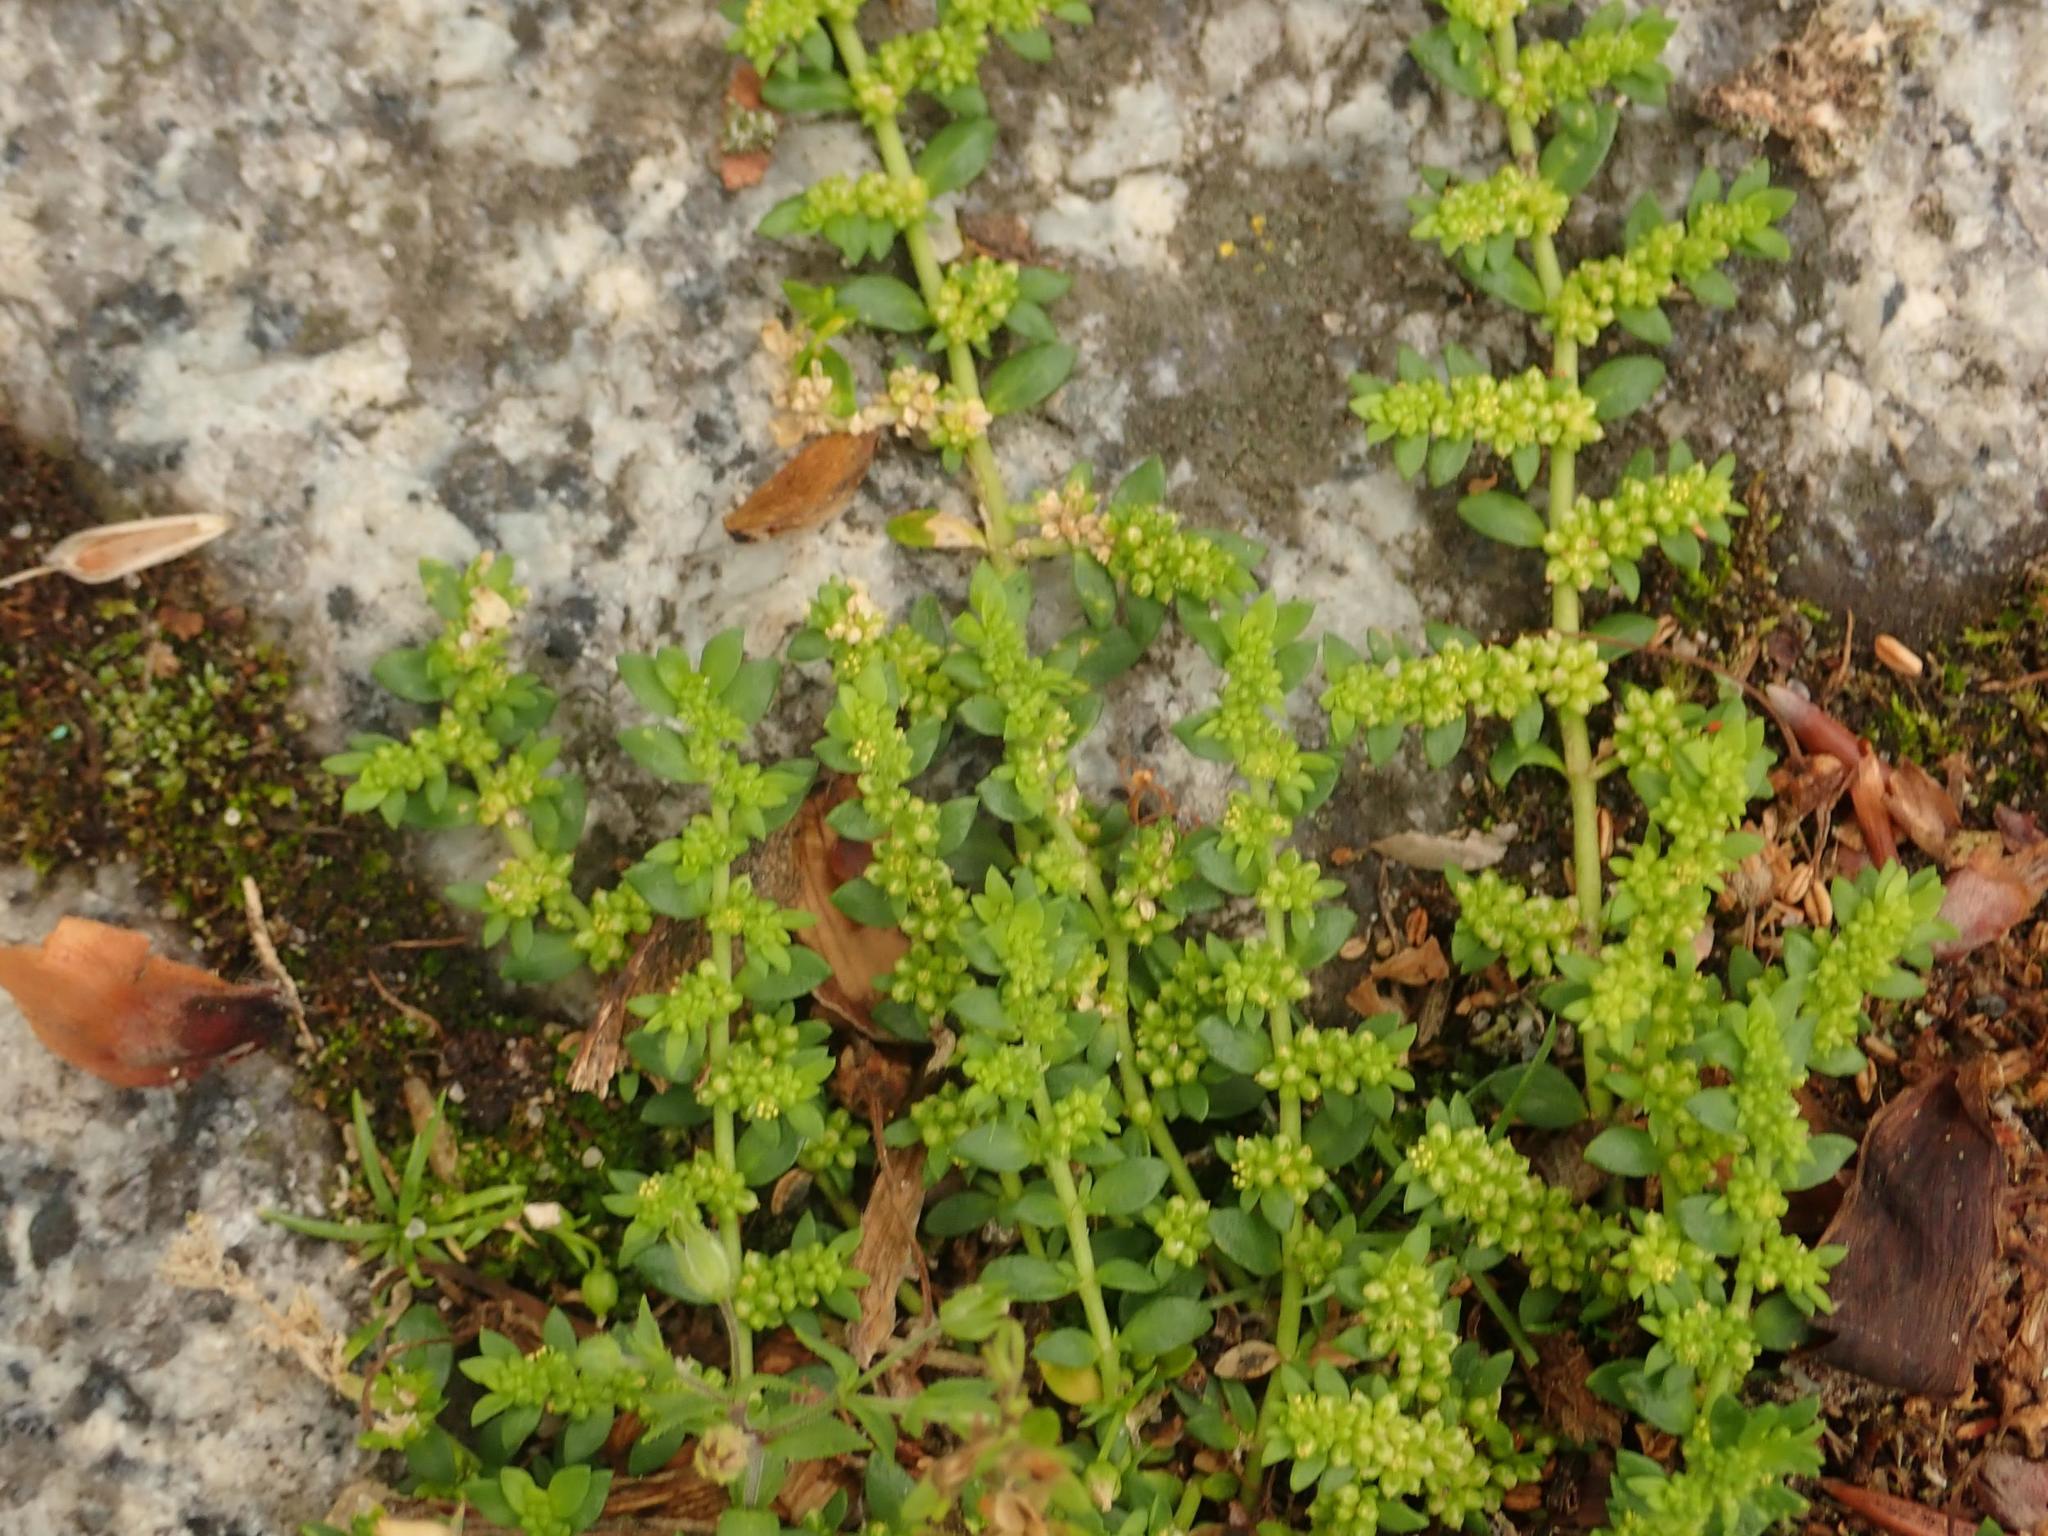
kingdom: Plantae
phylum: Tracheophyta
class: Magnoliopsida
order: Caryophyllales
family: Caryophyllaceae
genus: Herniaria
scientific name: Herniaria glabra
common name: Smooth rupturewort
